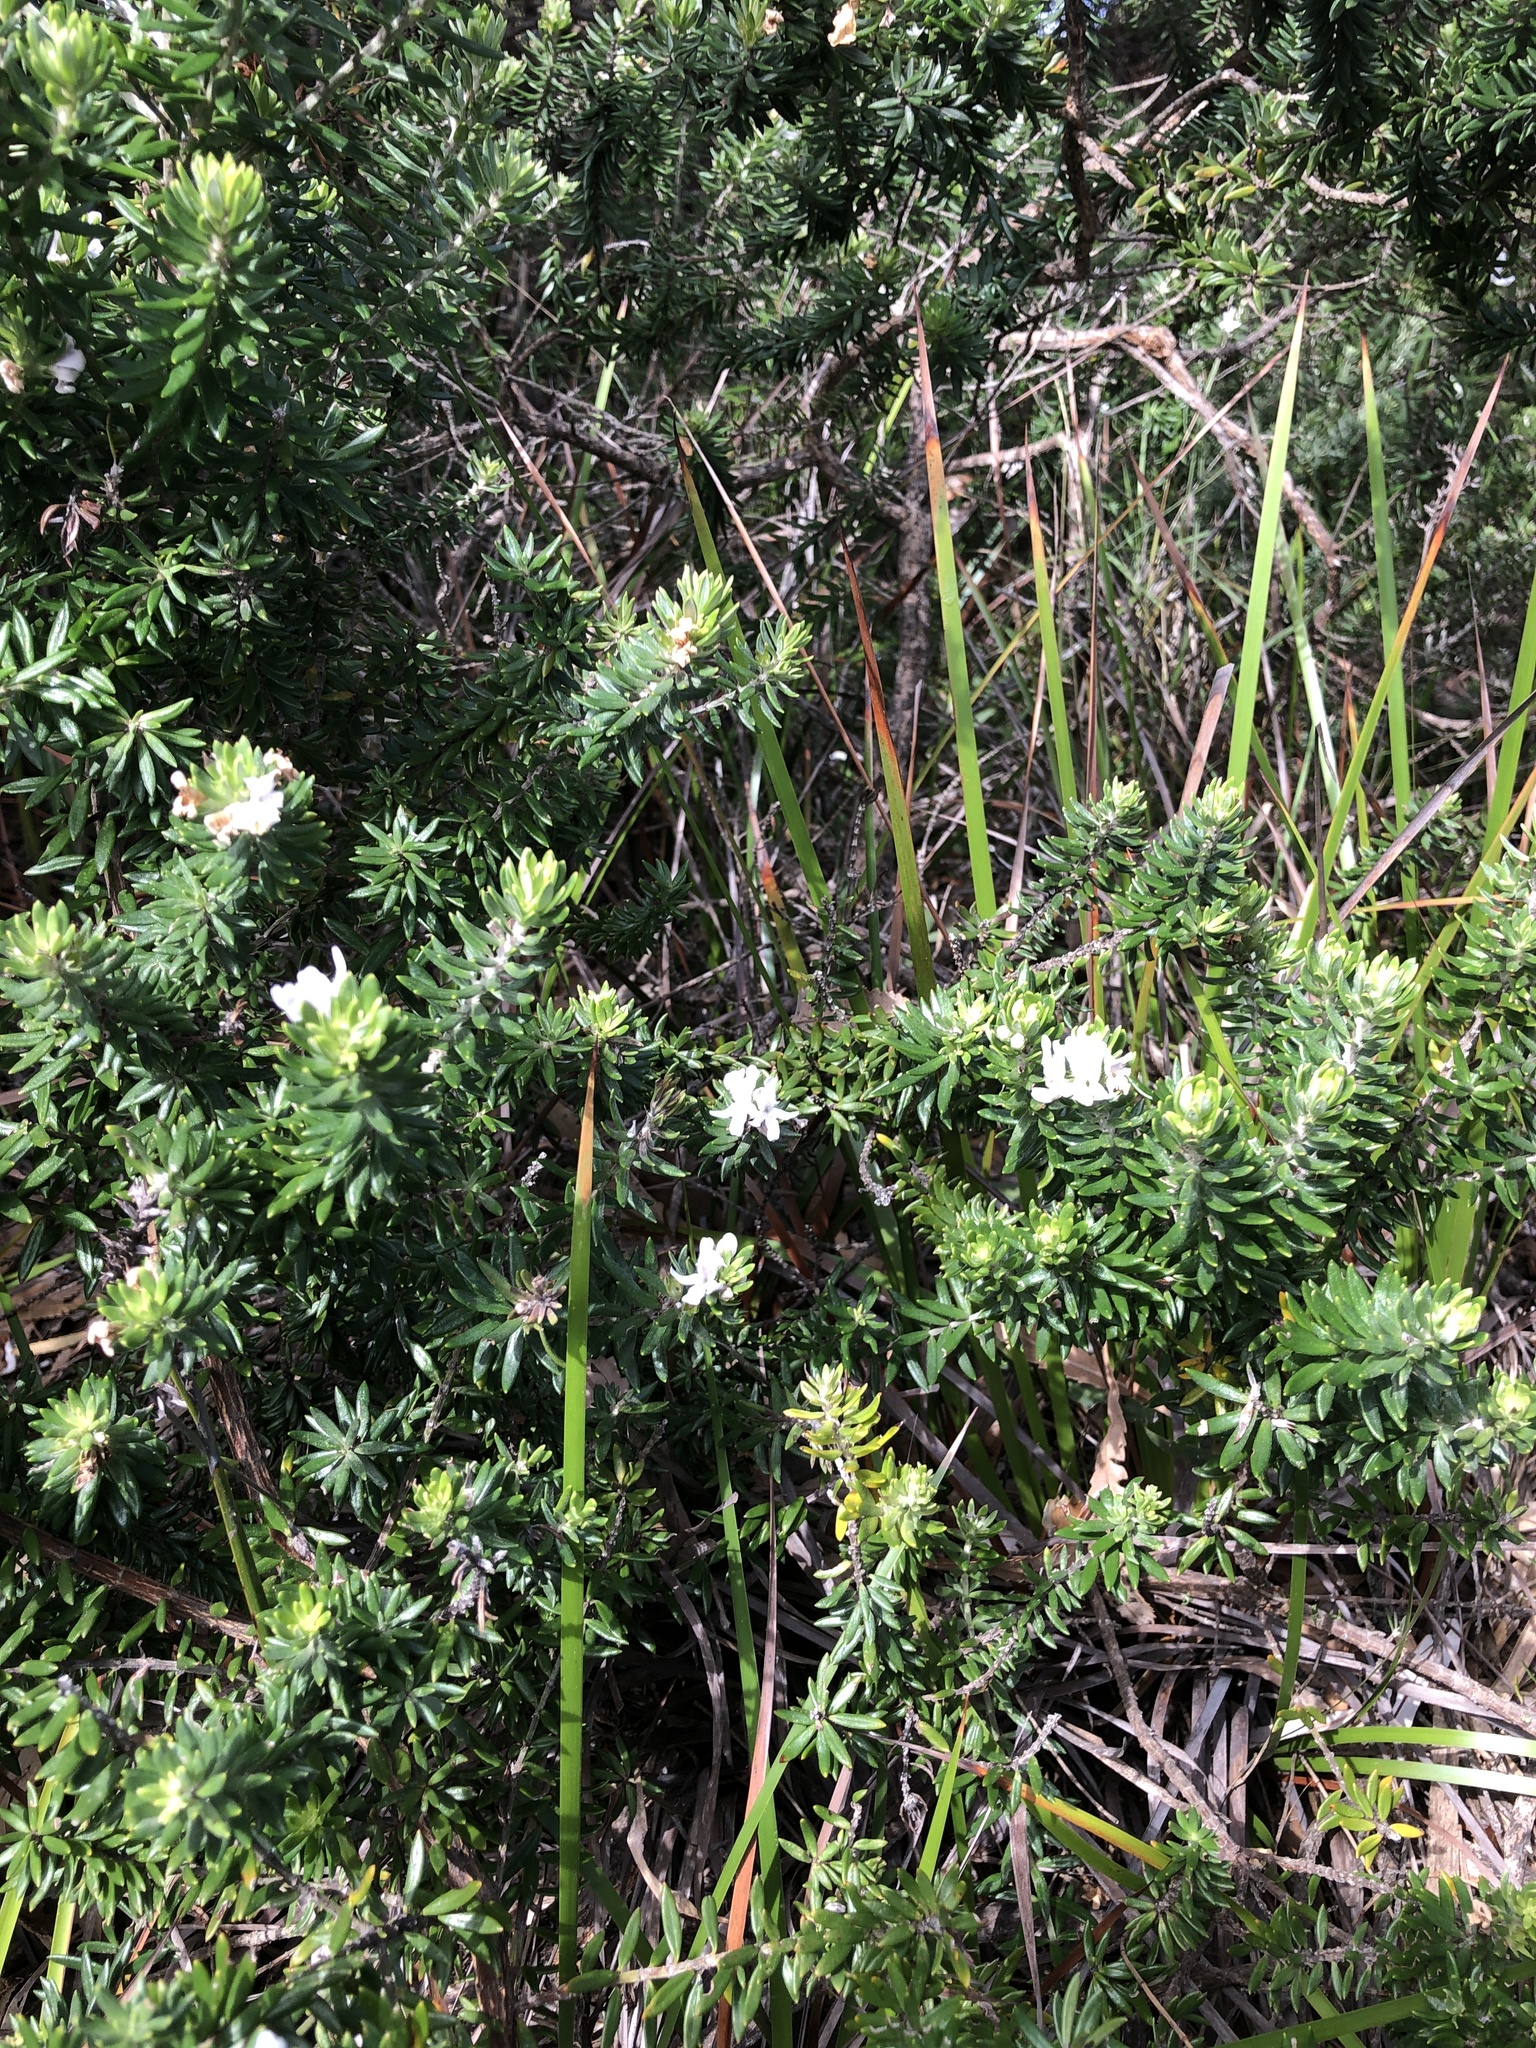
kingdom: Plantae
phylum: Tracheophyta
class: Magnoliopsida
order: Lamiales
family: Lamiaceae
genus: Westringia
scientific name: Westringia fruticosa
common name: Coastal-rosemary
